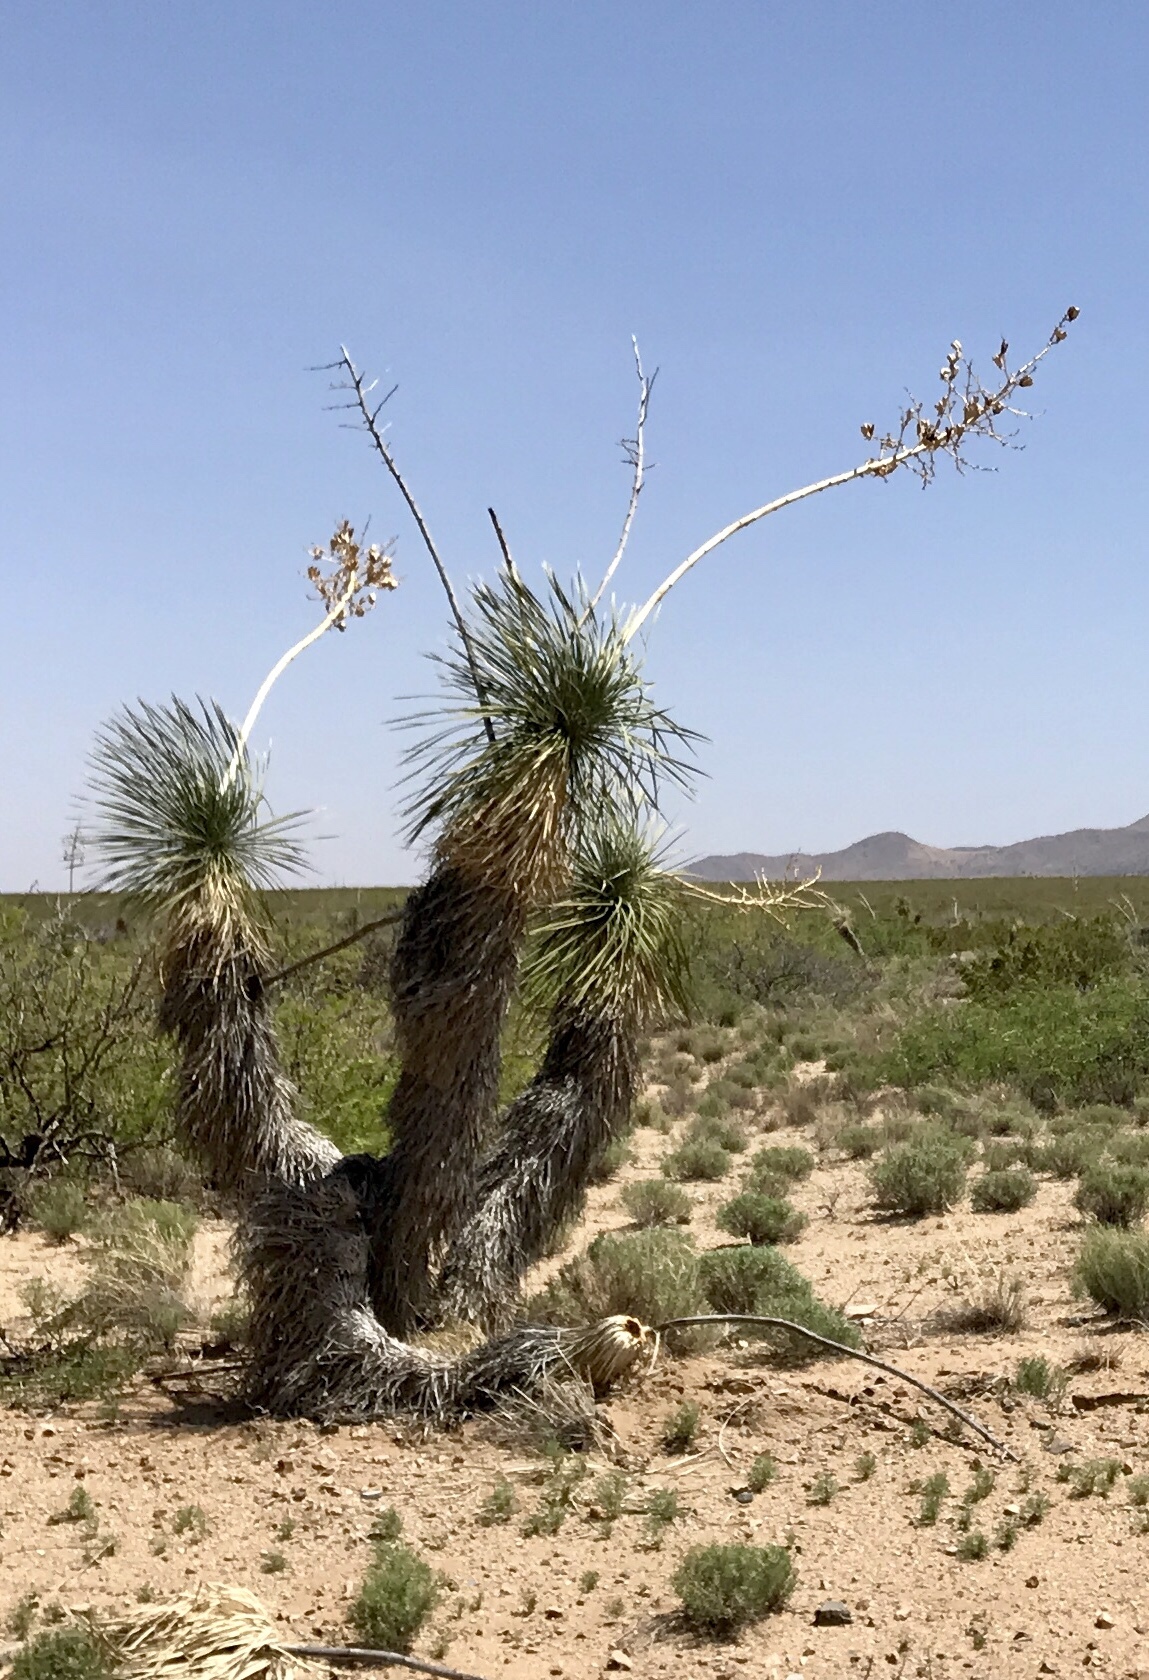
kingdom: Plantae
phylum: Tracheophyta
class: Liliopsida
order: Asparagales
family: Asparagaceae
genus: Yucca
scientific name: Yucca elata
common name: Palmella
